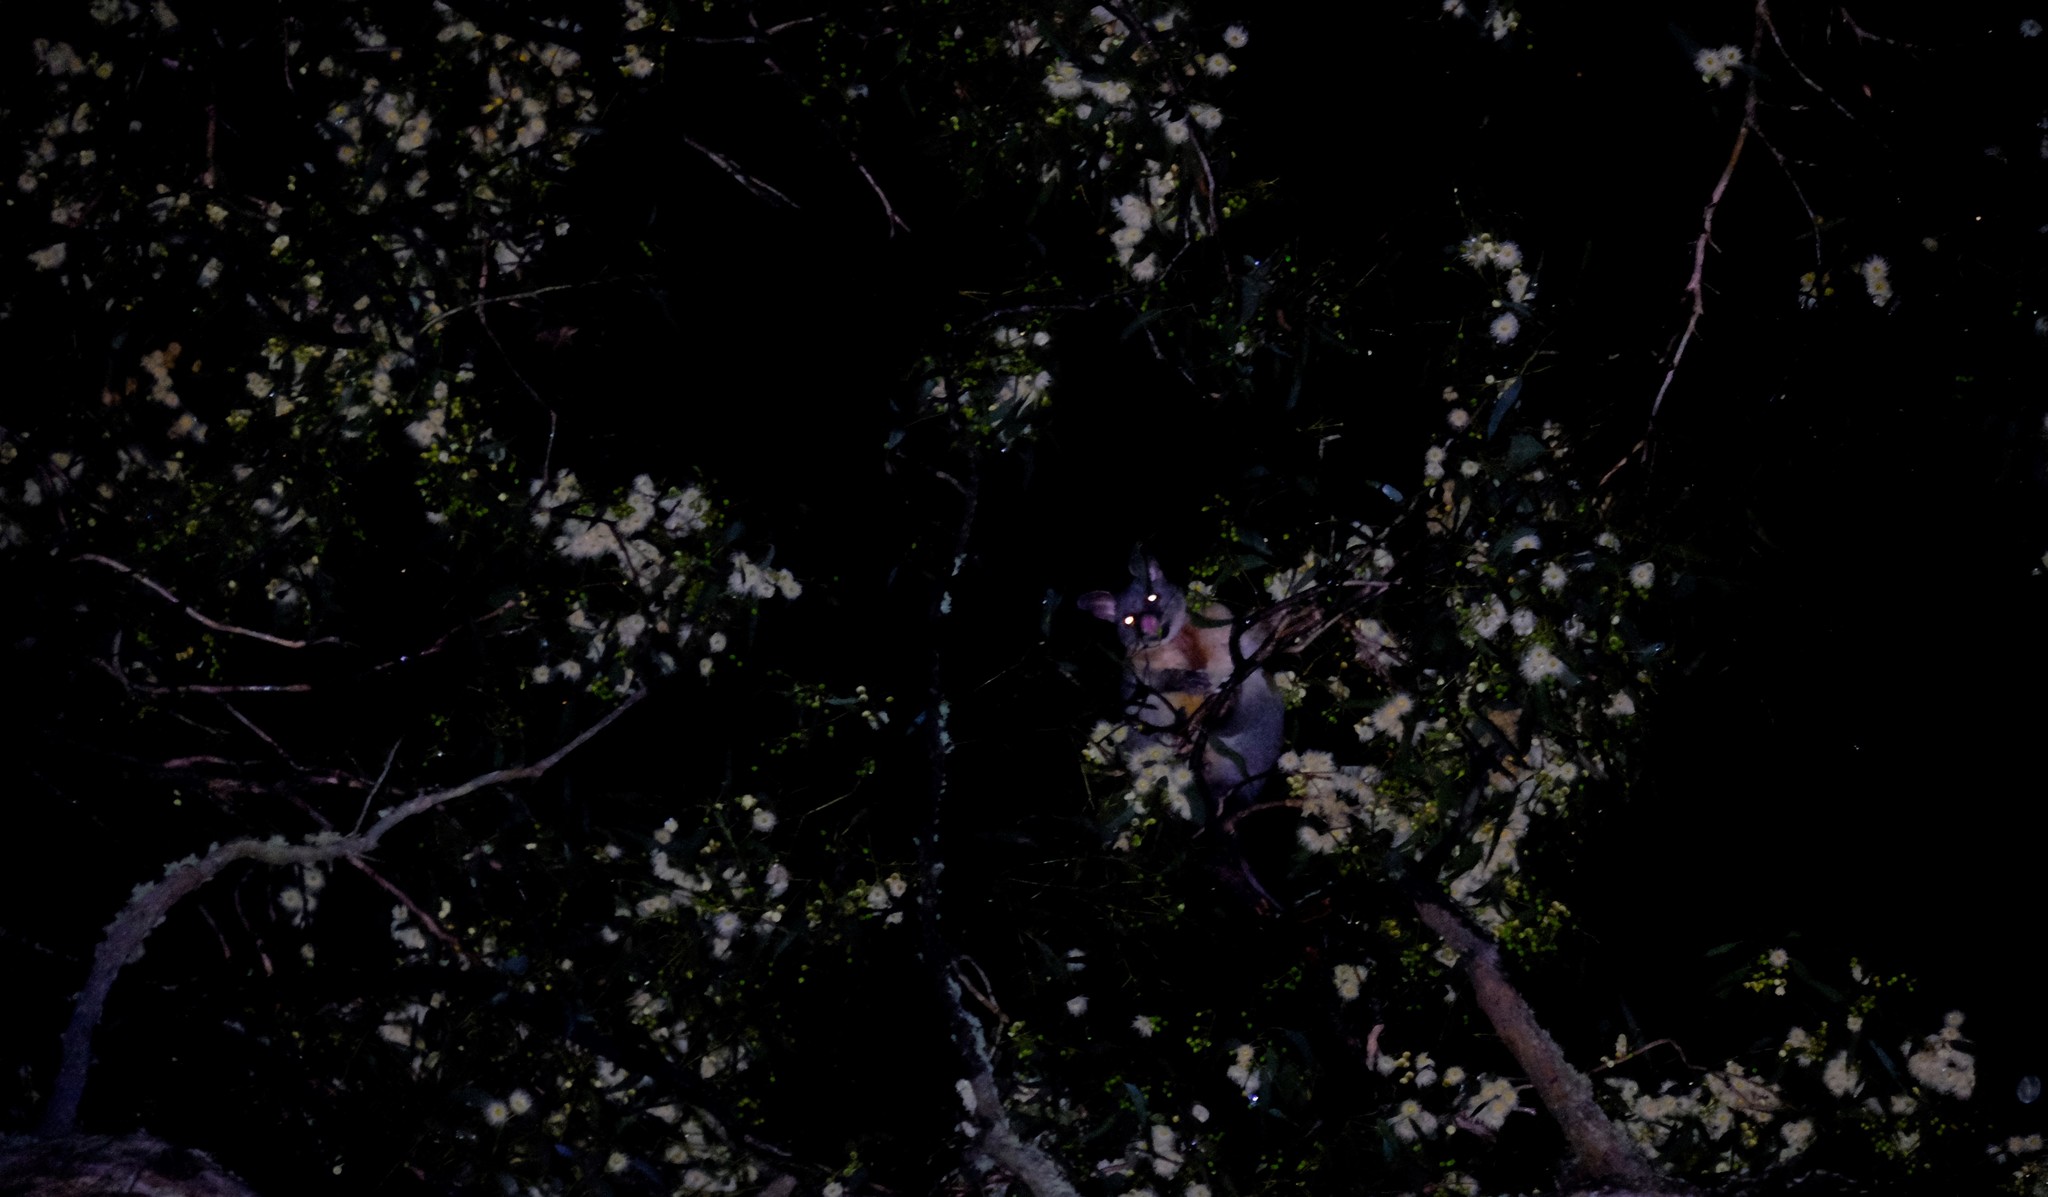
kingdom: Animalia
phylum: Chordata
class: Mammalia
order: Diprotodontia
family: Phalangeridae
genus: Trichosurus
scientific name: Trichosurus vulpecula
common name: Common brushtail
